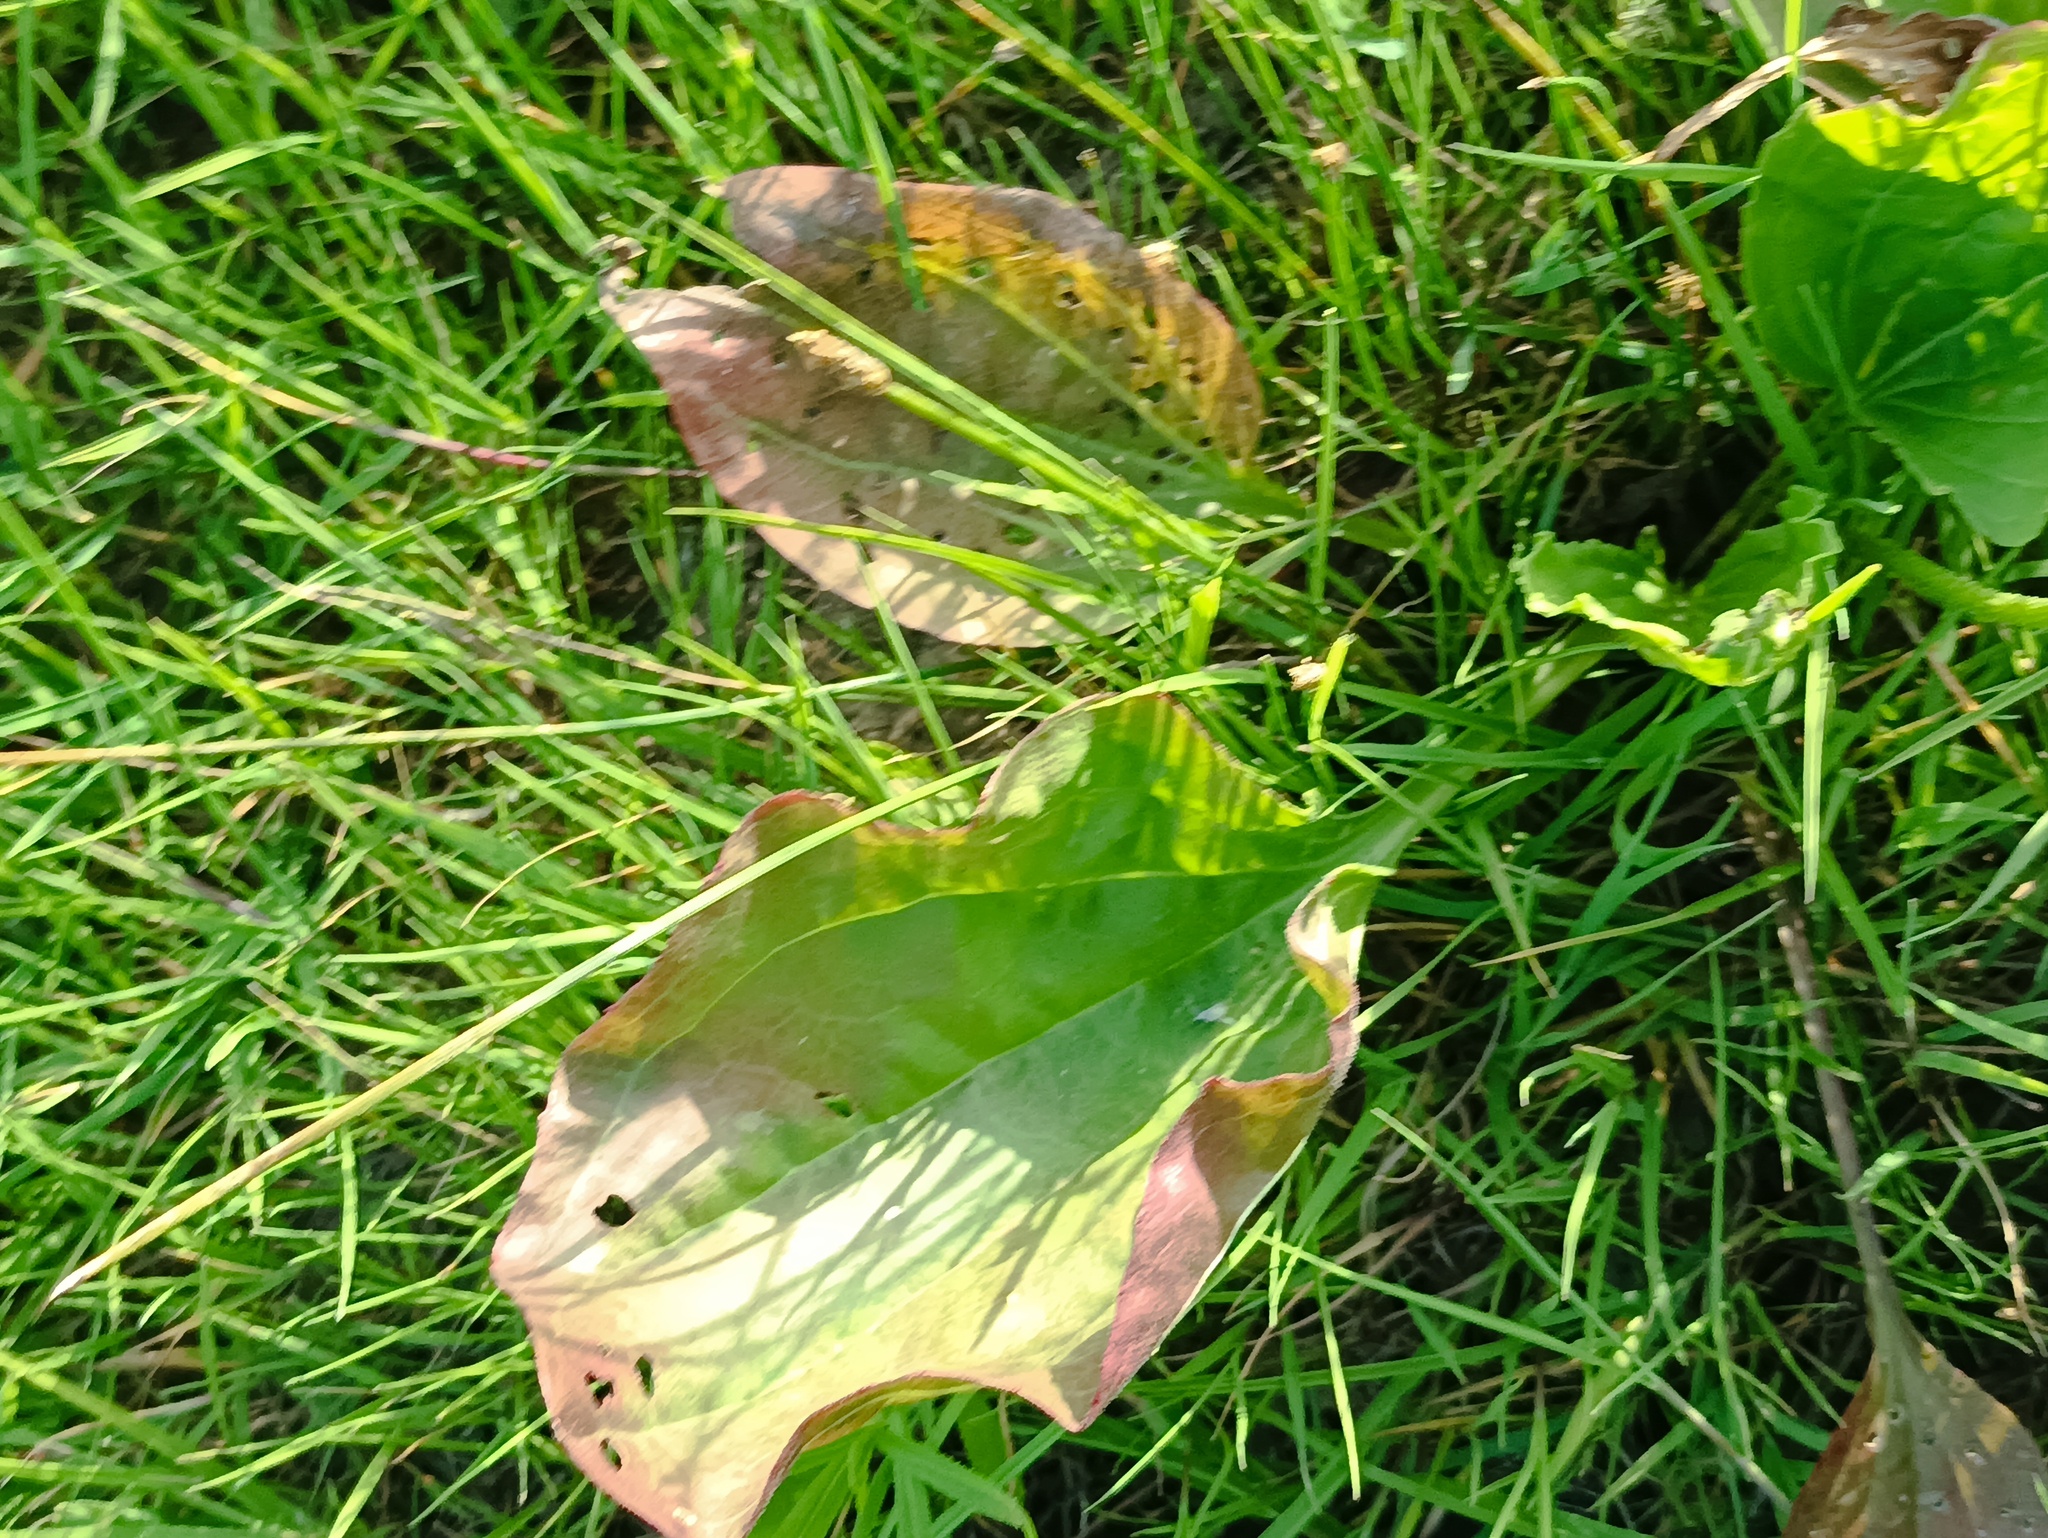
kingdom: Plantae
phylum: Tracheophyta
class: Magnoliopsida
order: Lamiales
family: Plantaginaceae
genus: Plantago
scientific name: Plantago major
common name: Common plantain
